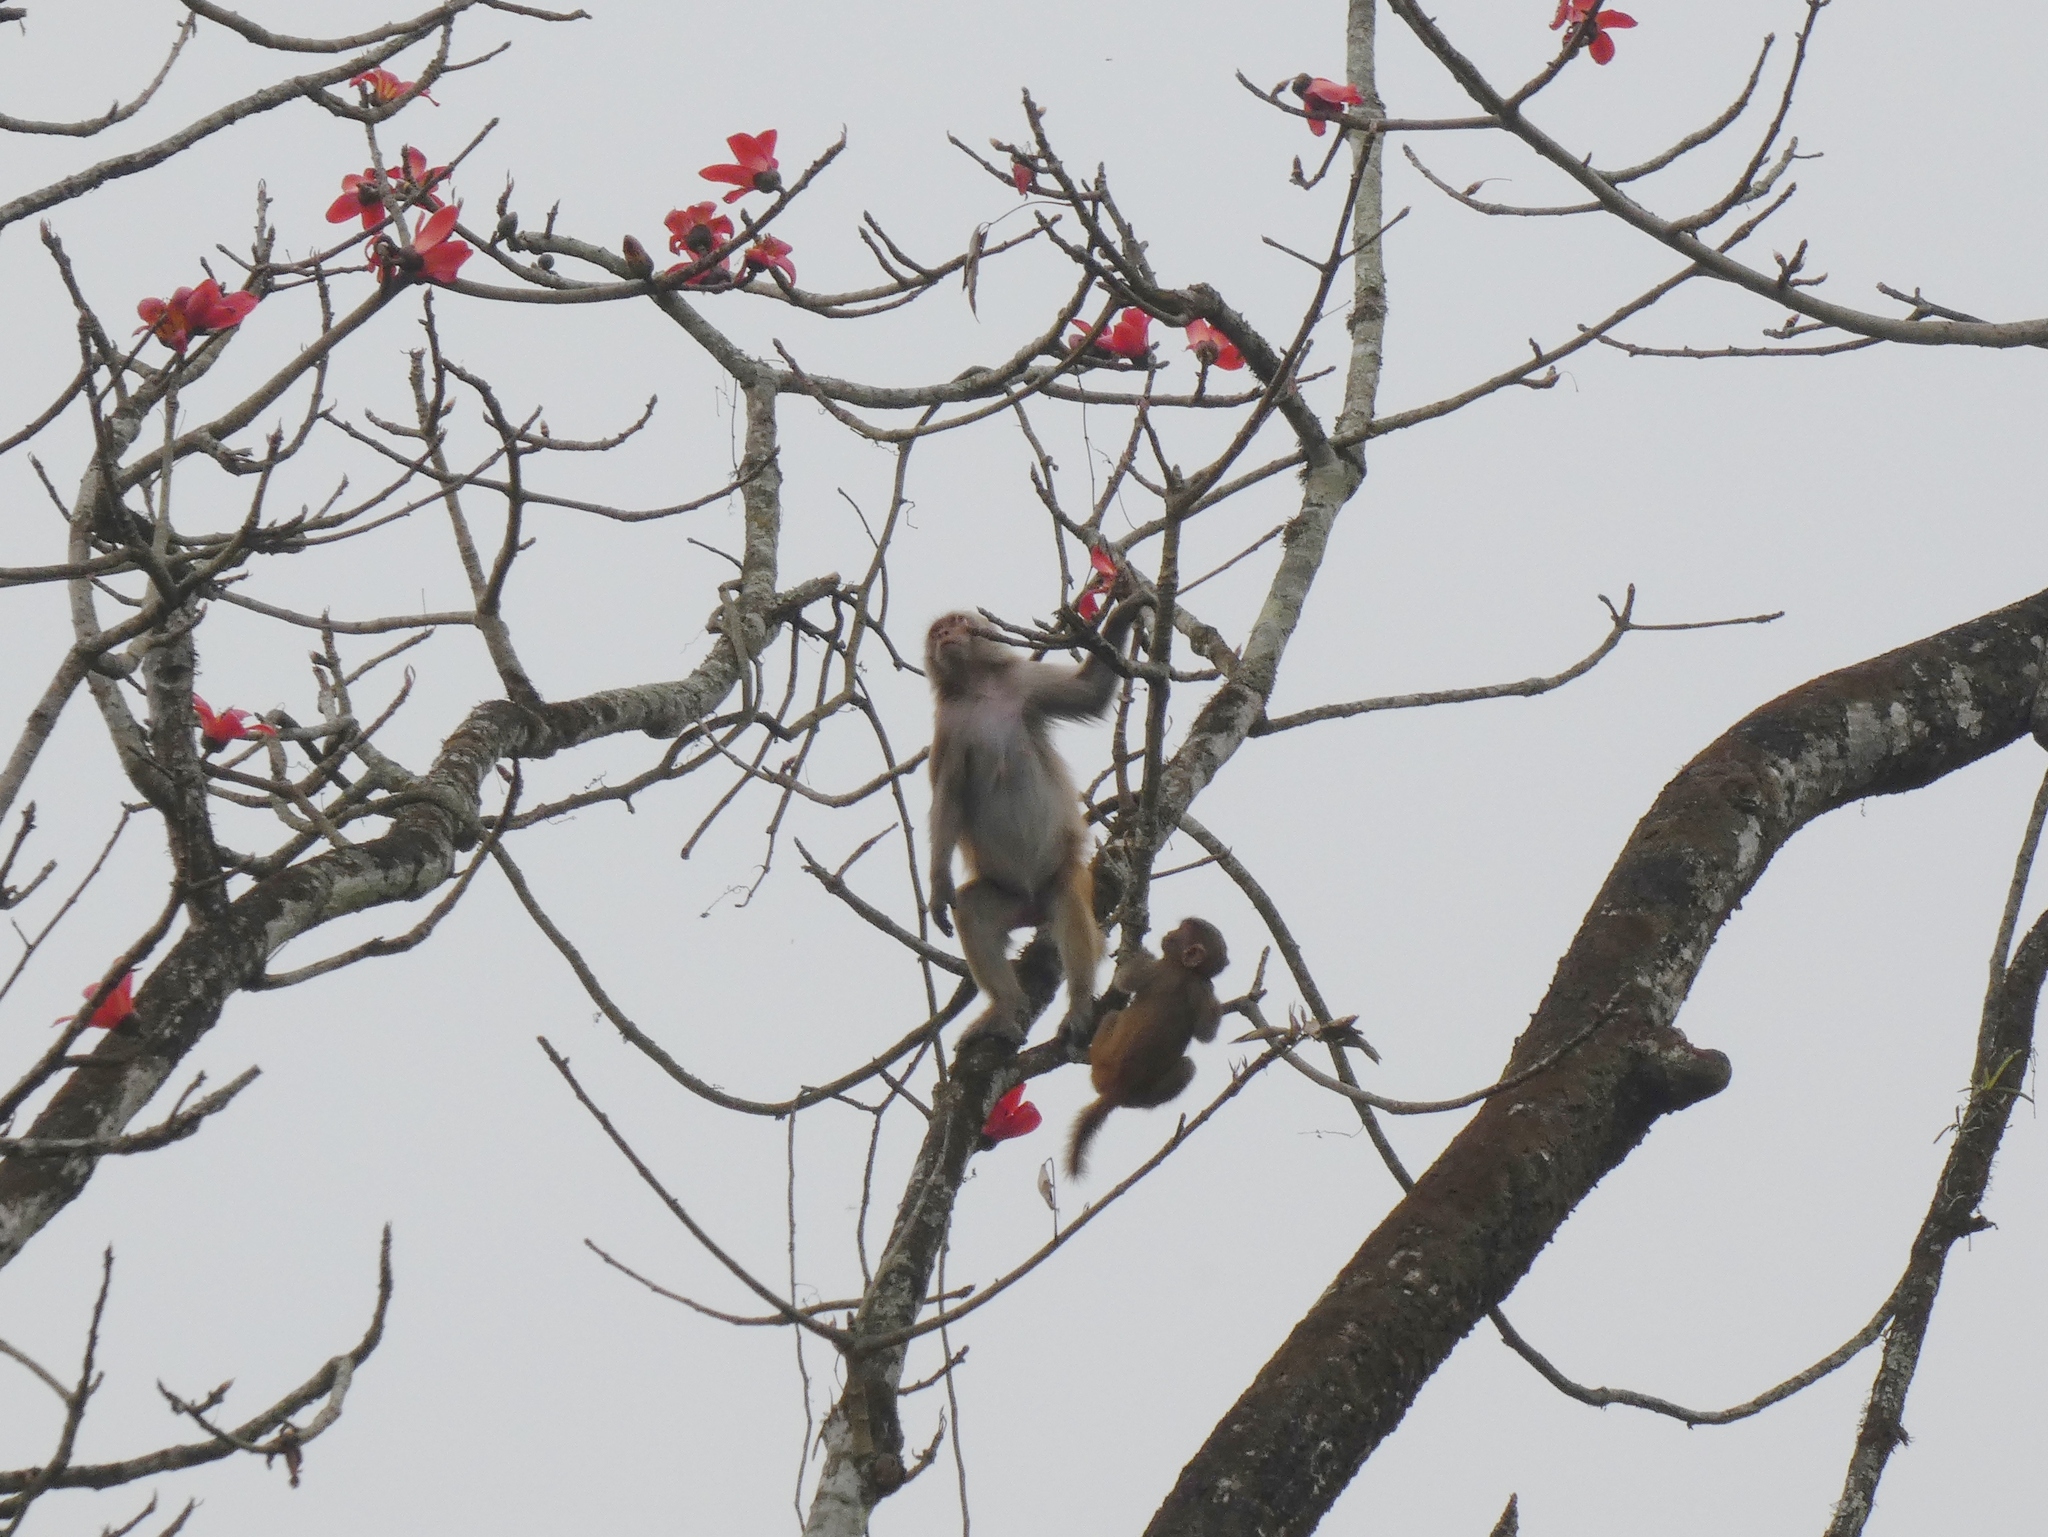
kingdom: Animalia
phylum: Chordata
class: Mammalia
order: Primates
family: Cercopithecidae
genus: Macaca
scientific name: Macaca mulatta
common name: Rhesus monkey
